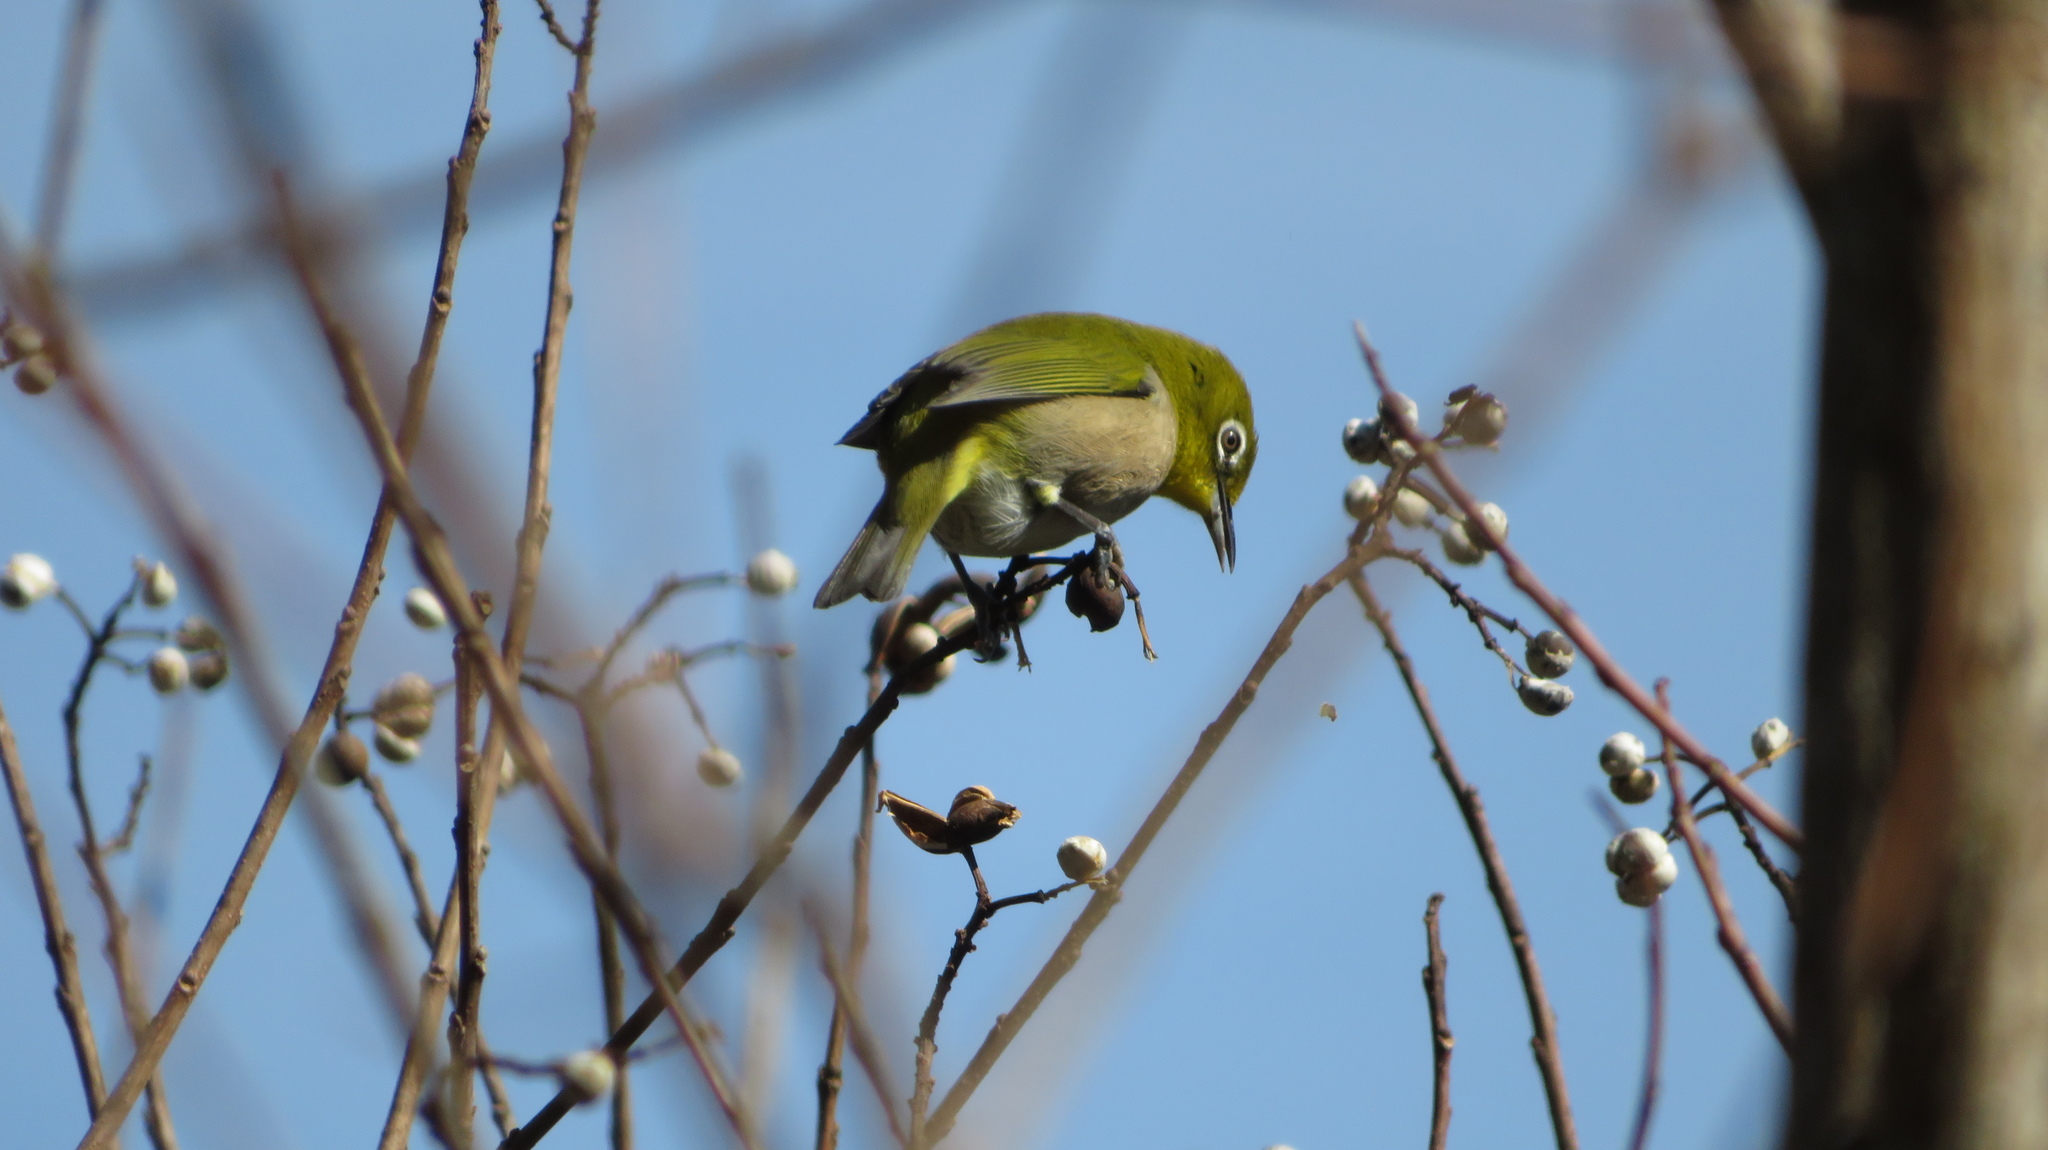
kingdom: Animalia
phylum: Chordata
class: Aves
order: Passeriformes
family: Zosteropidae
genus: Zosterops
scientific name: Zosterops japonicus
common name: Japanese white-eye
